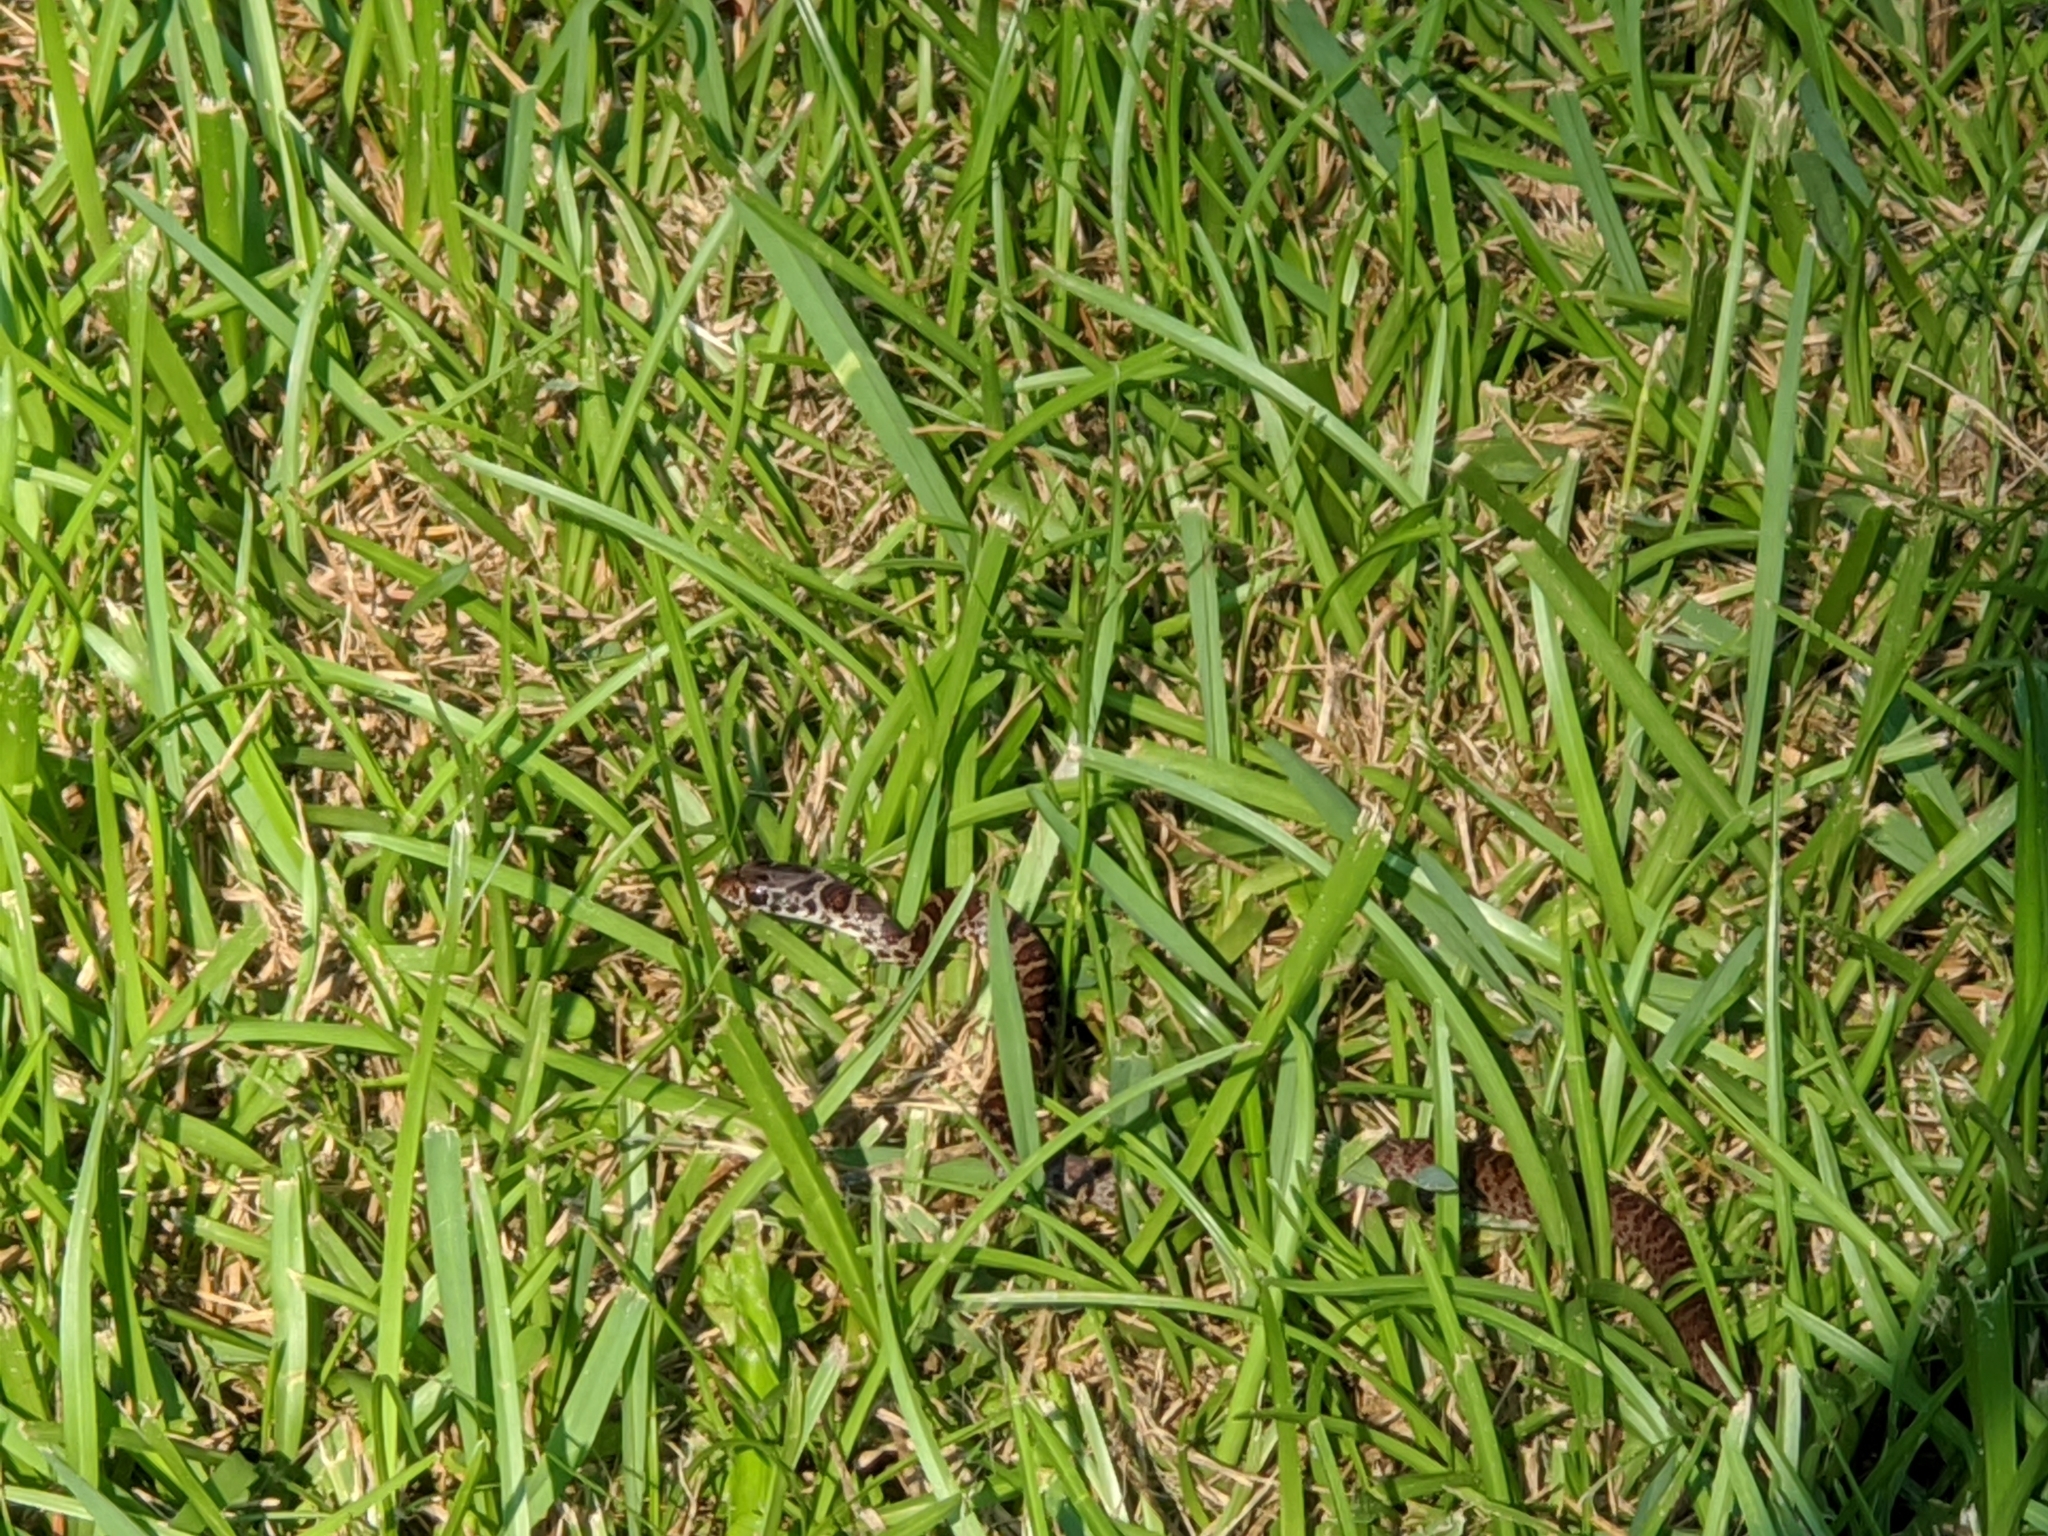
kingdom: Animalia
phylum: Chordata
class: Squamata
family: Colubridae
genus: Coluber
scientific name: Coluber constrictor
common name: Eastern racer
